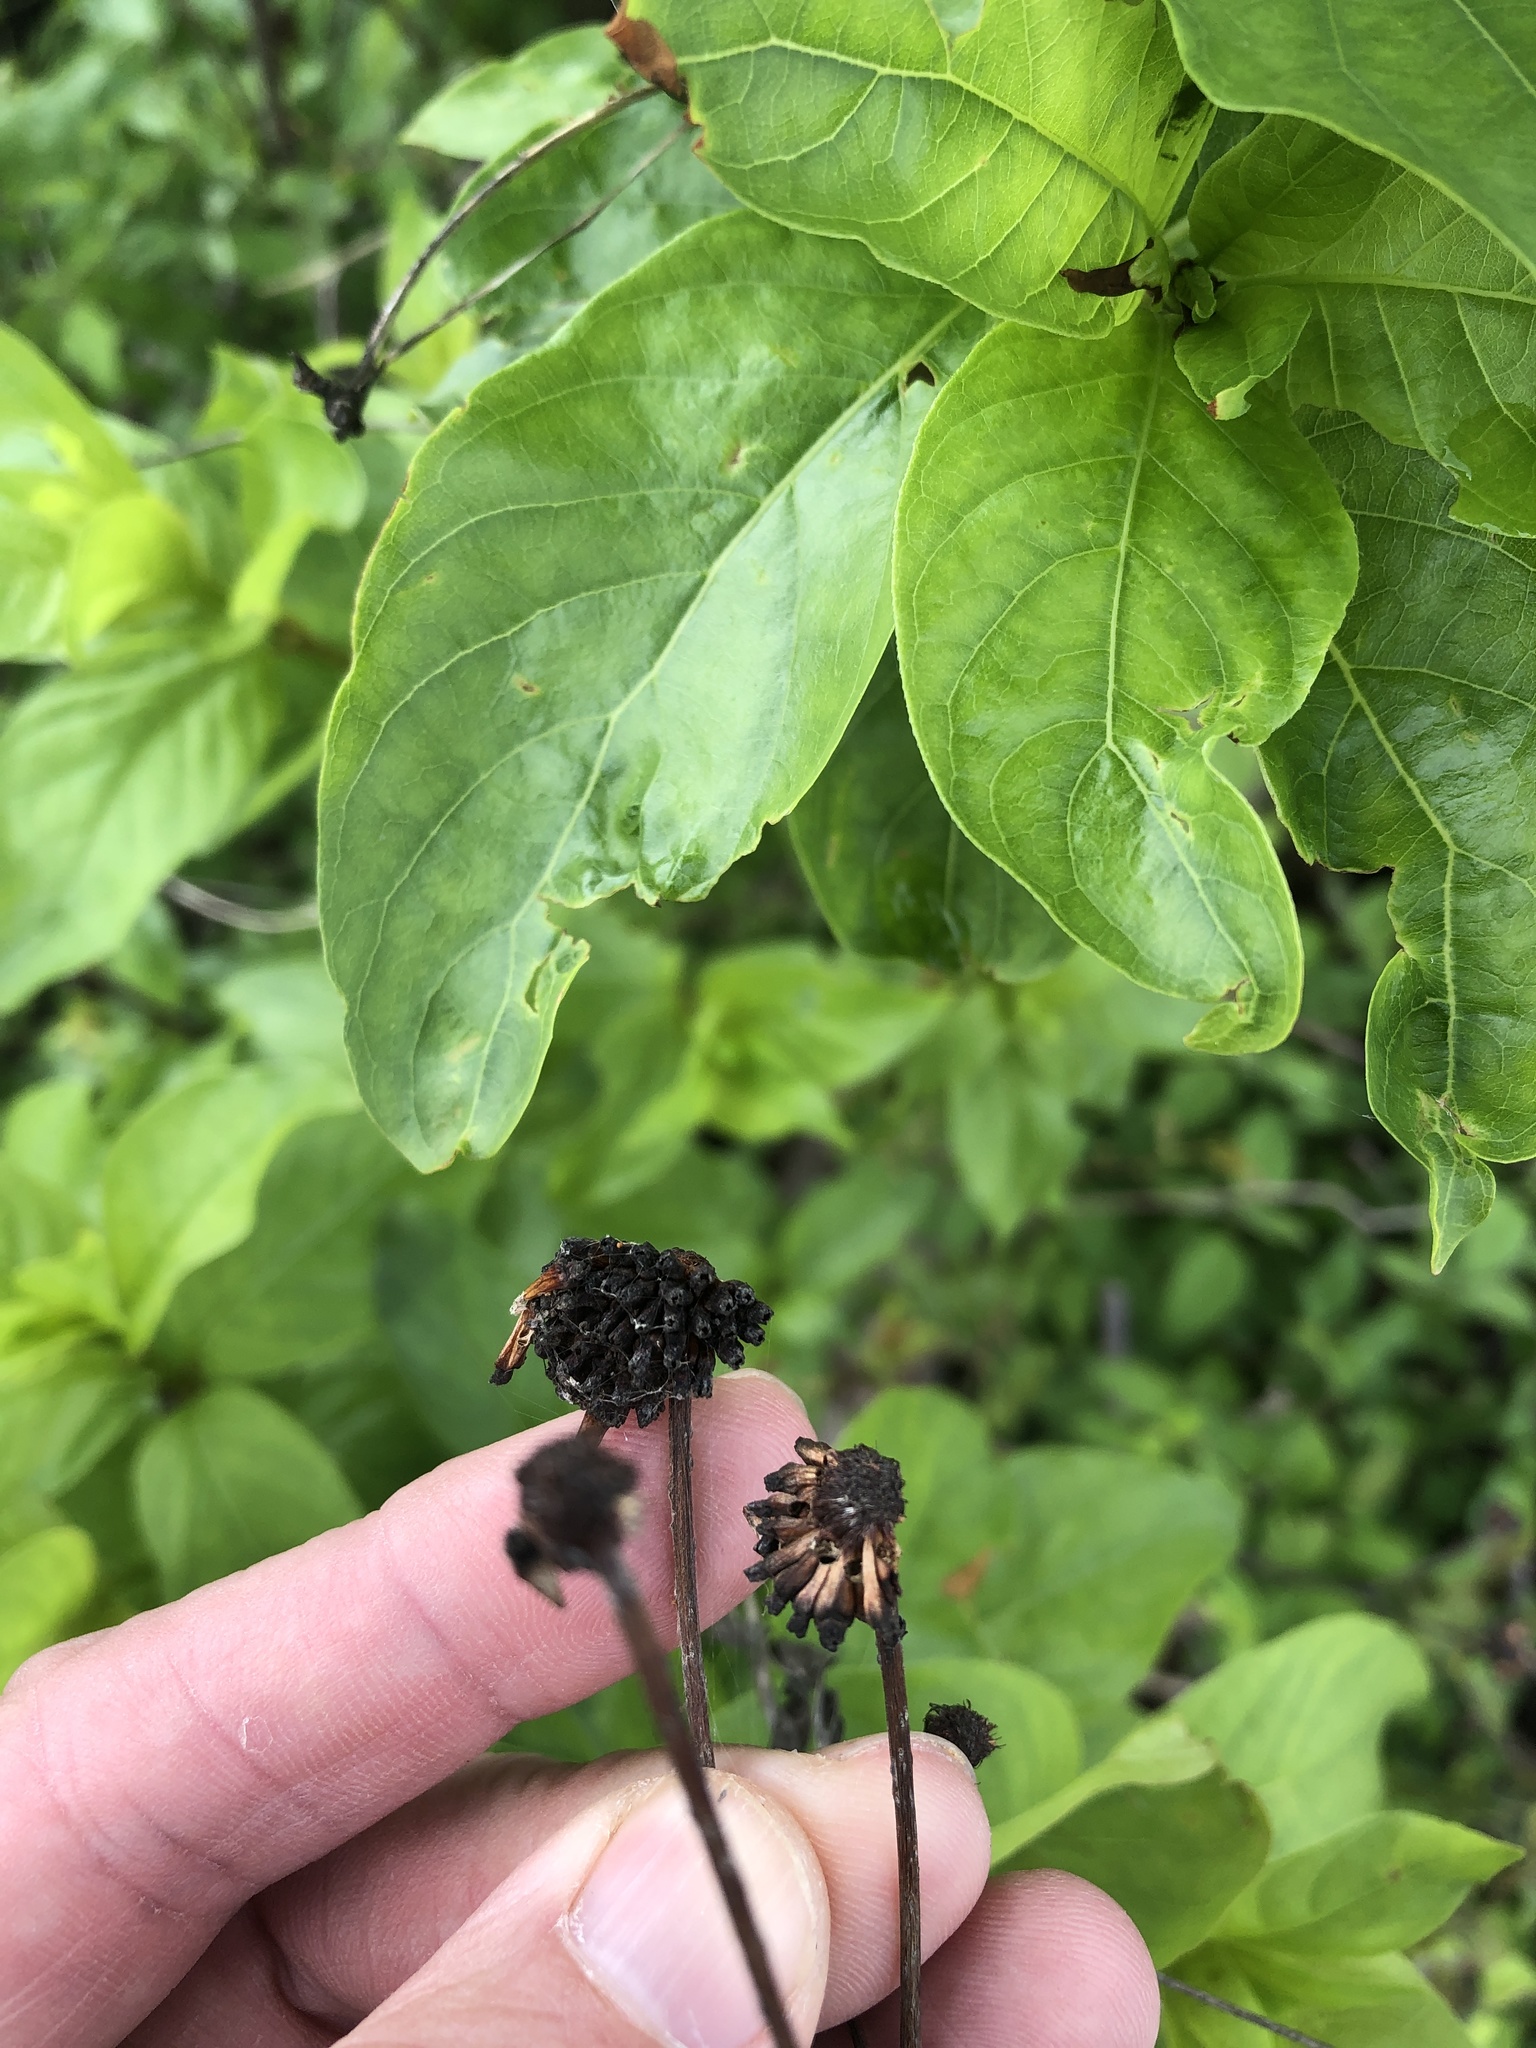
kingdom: Plantae
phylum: Tracheophyta
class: Magnoliopsida
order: Gentianales
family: Rubiaceae
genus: Cephalanthus
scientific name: Cephalanthus occidentalis
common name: Button-willow
